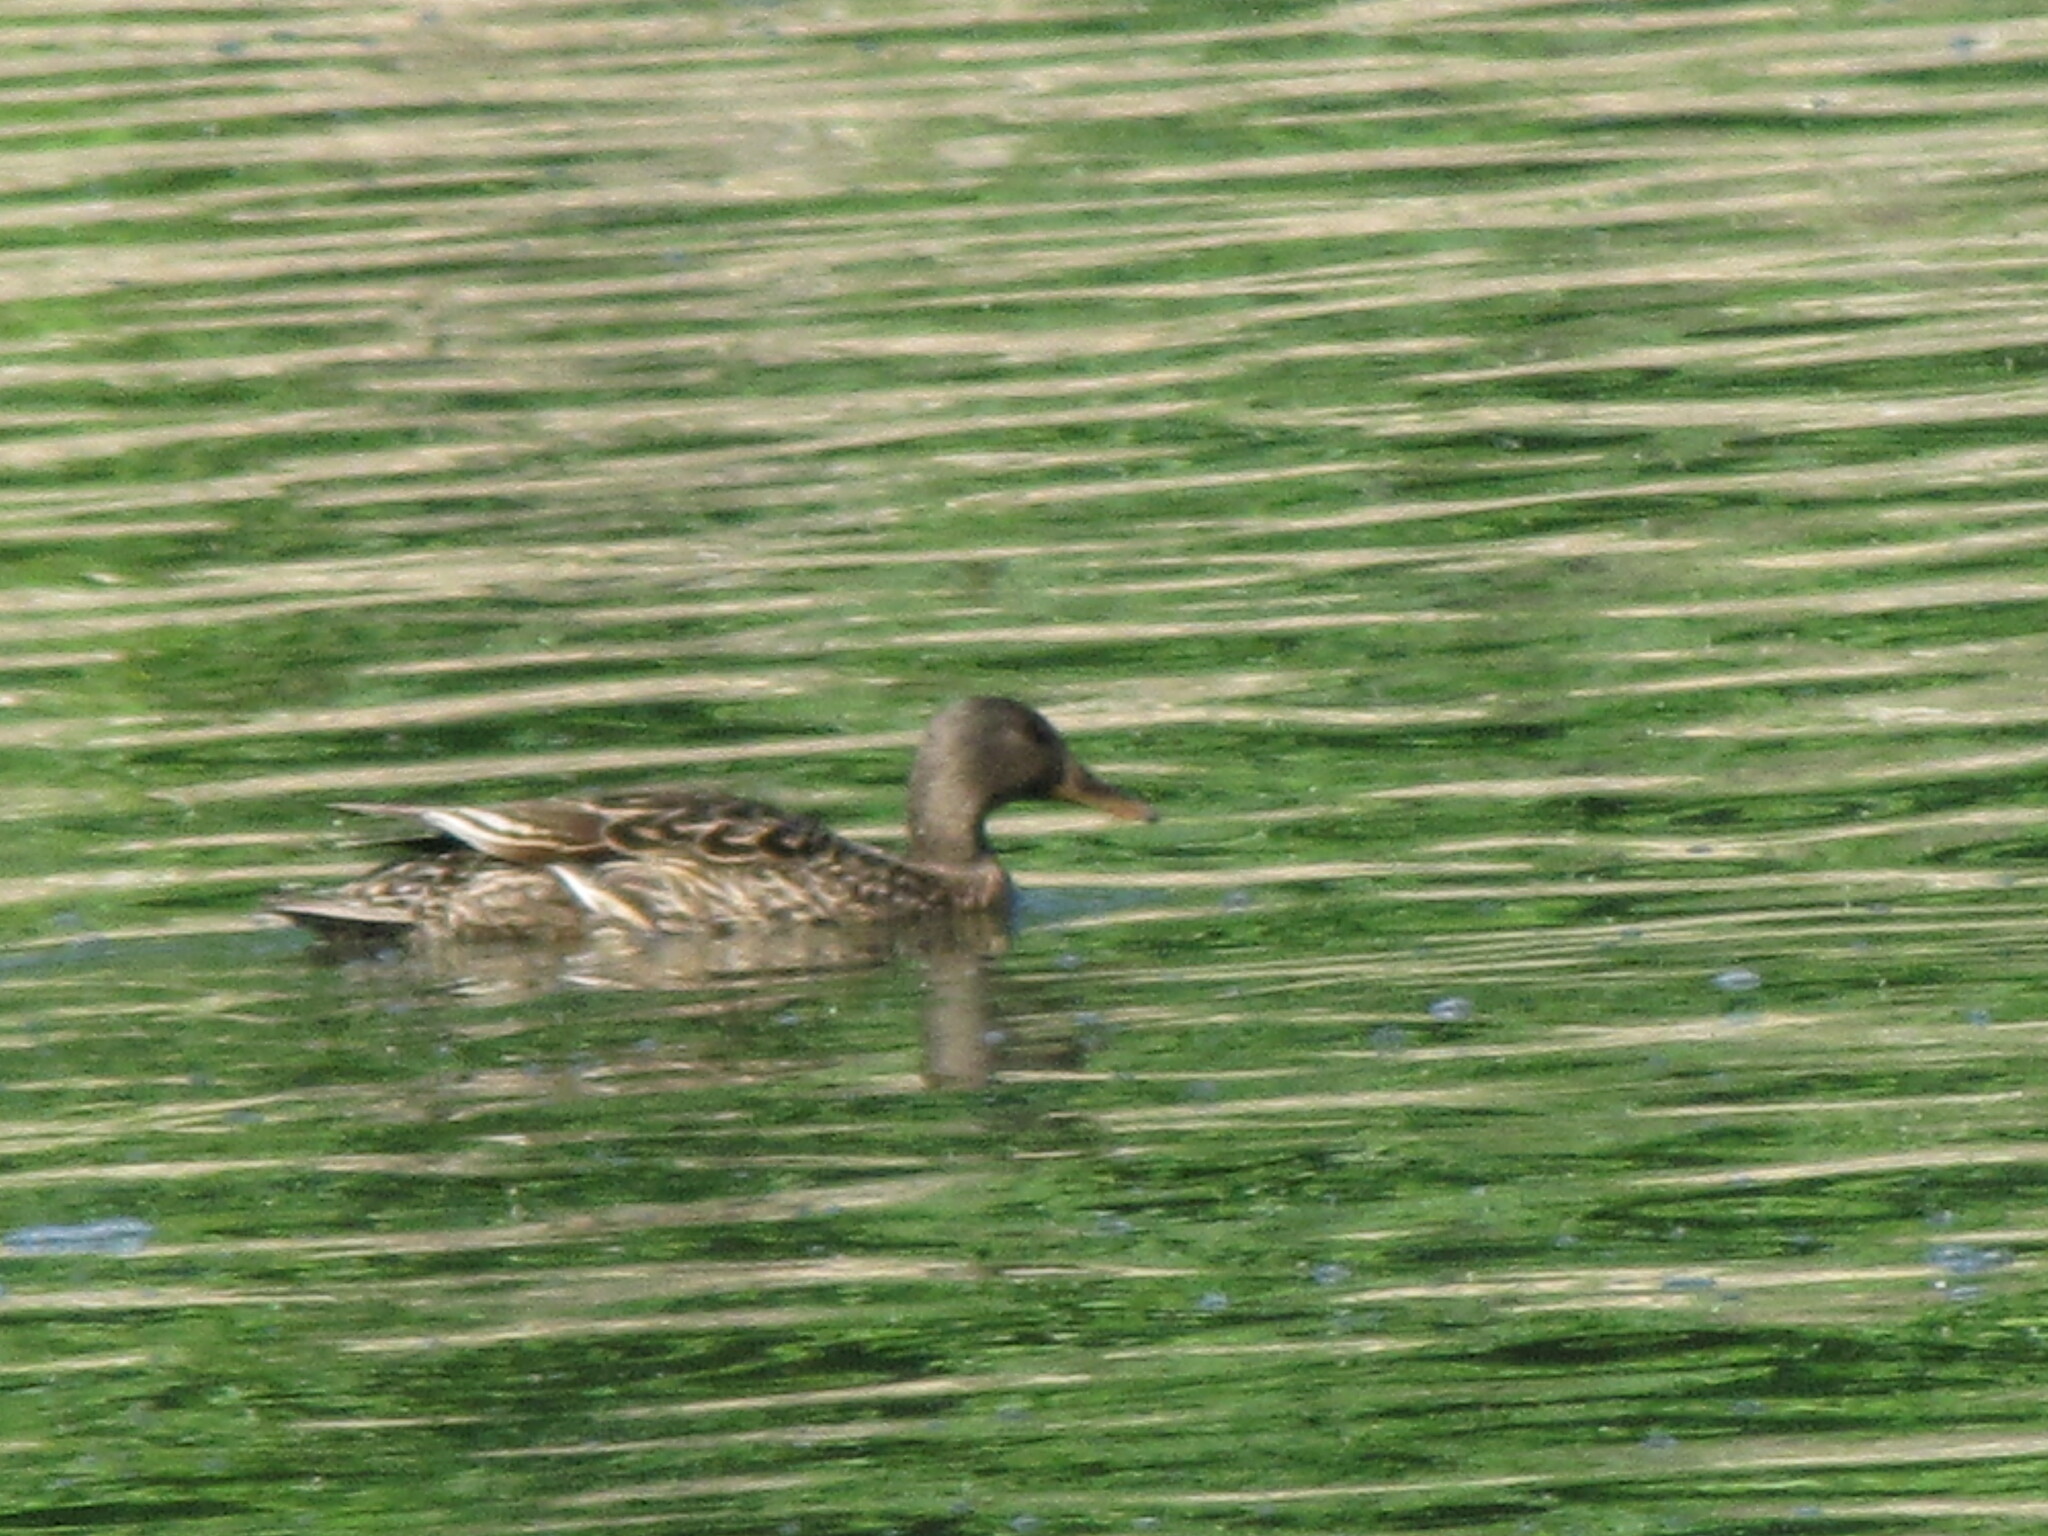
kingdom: Animalia
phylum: Chordata
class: Aves
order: Anseriformes
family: Anatidae
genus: Anas
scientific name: Anas platyrhynchos
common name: Mallard
